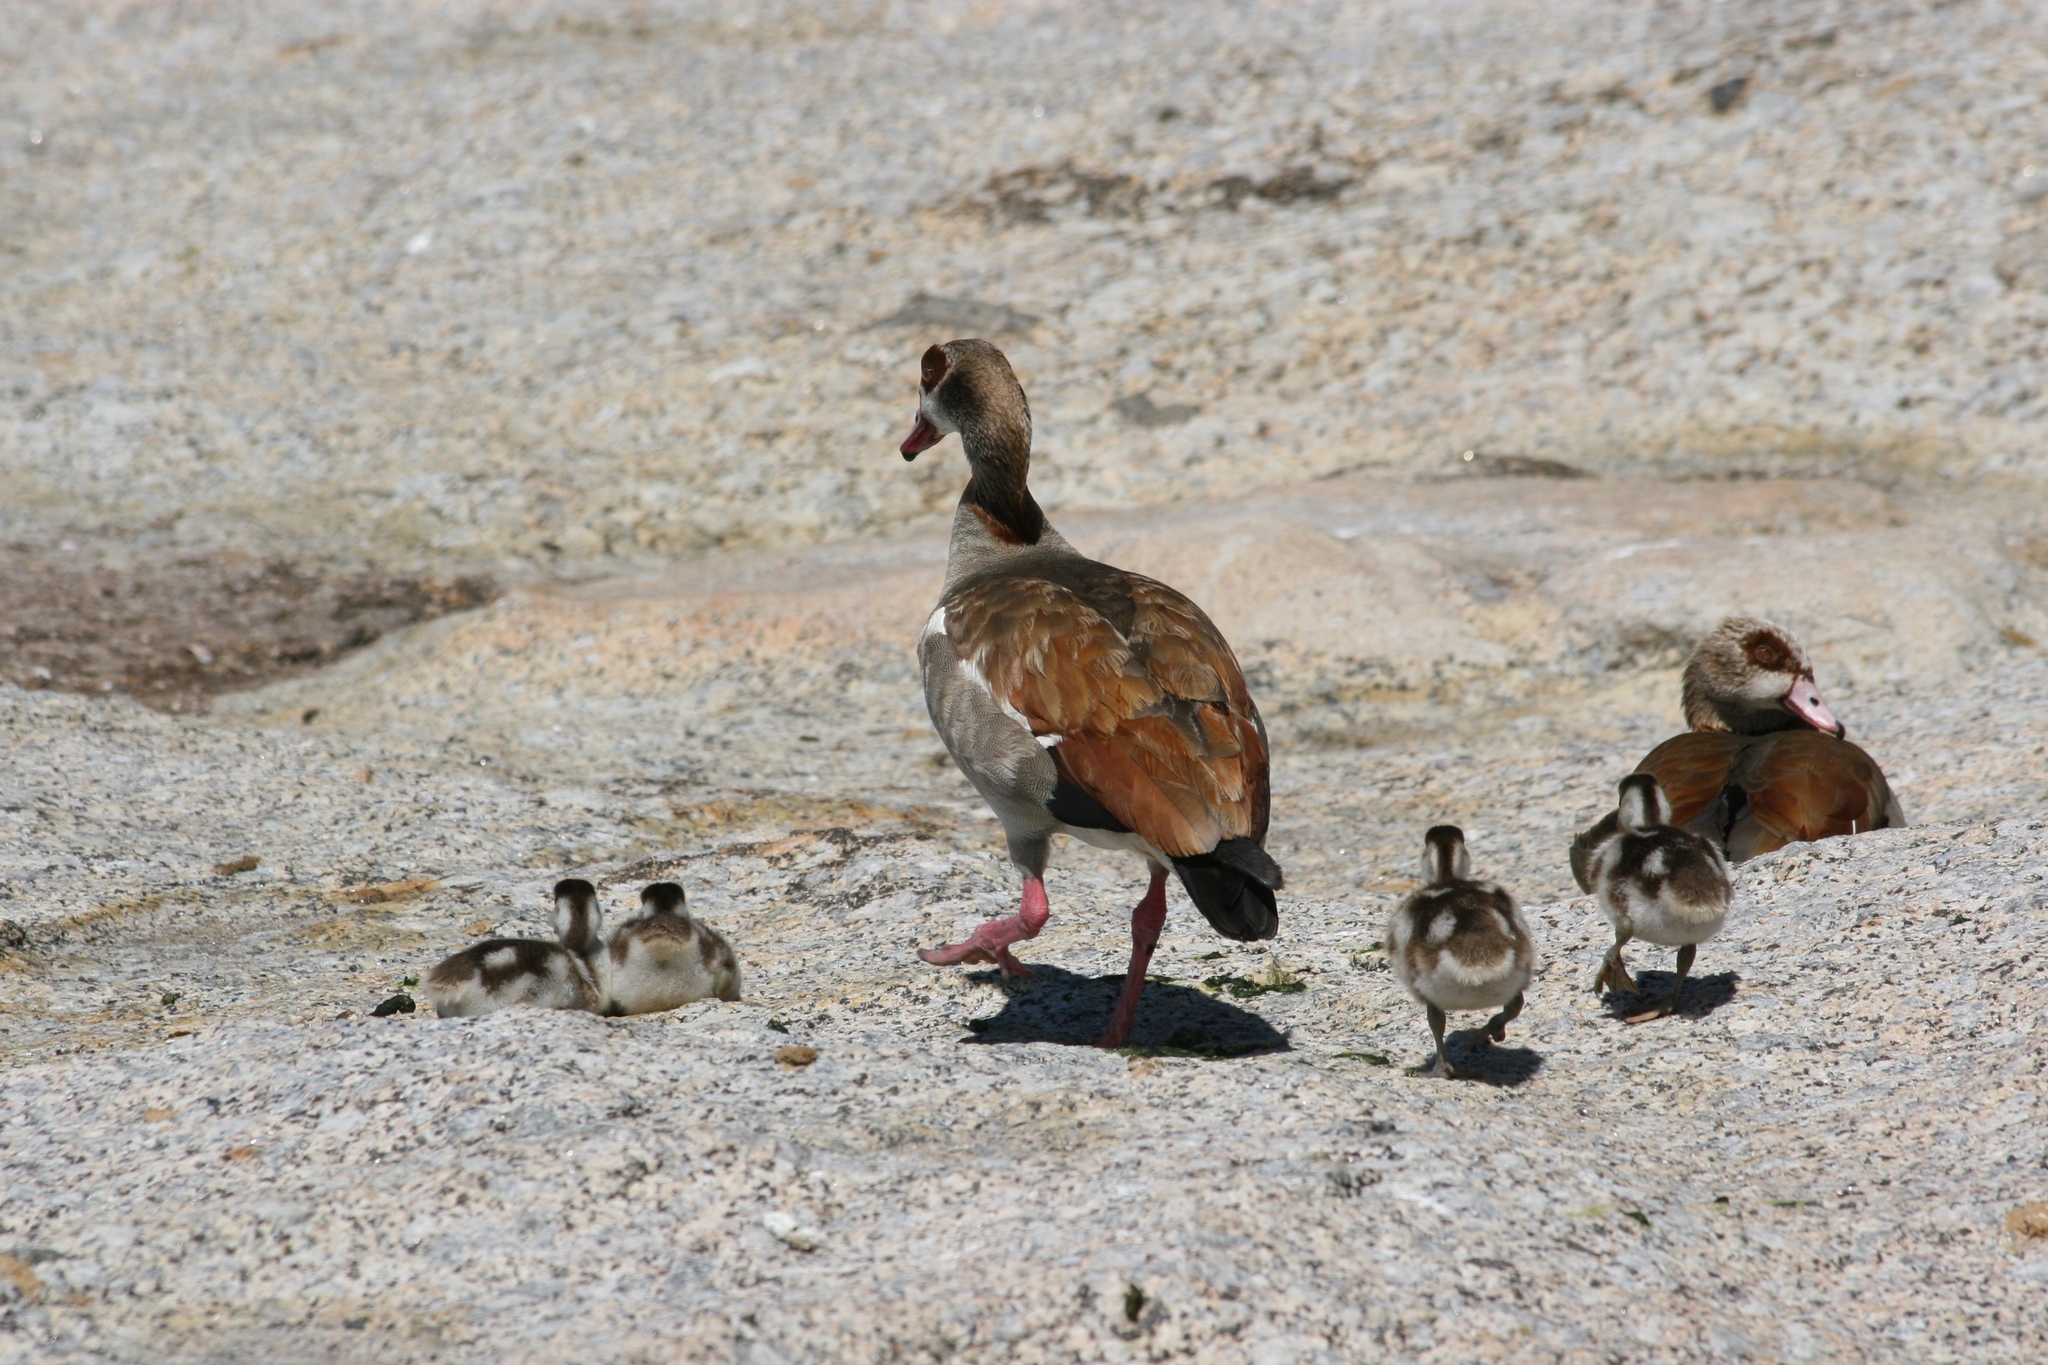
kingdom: Animalia
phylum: Chordata
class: Aves
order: Anseriformes
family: Anatidae
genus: Alopochen
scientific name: Alopochen aegyptiaca
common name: Egyptian goose
